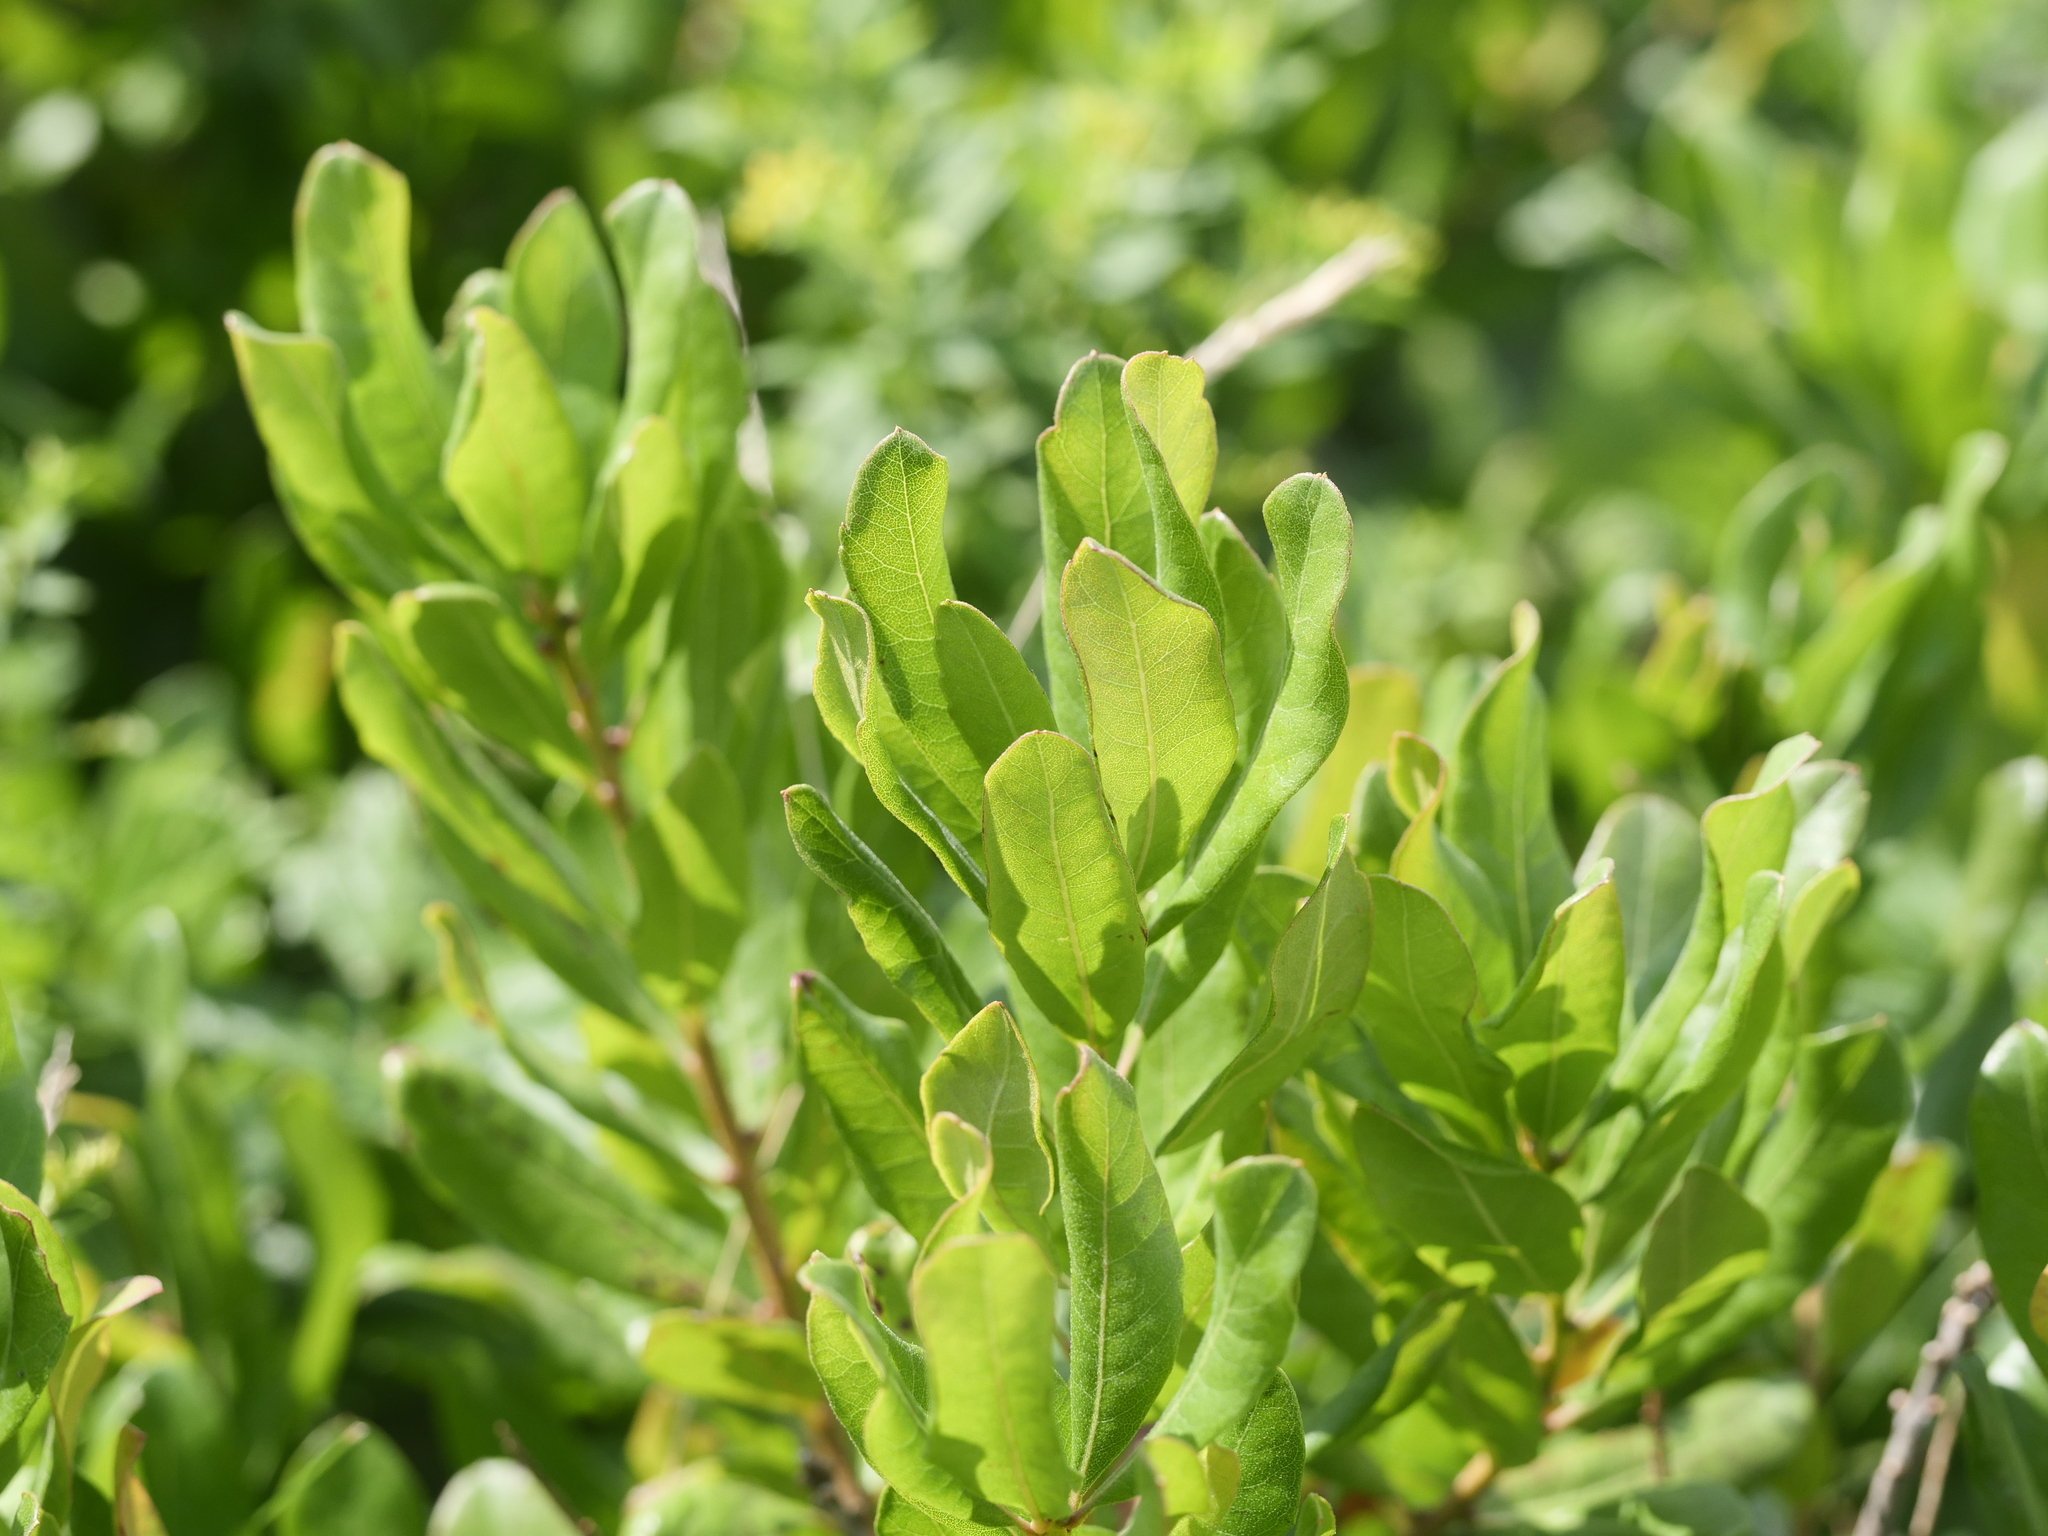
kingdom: Plantae
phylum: Tracheophyta
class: Magnoliopsida
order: Fagales
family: Myricaceae
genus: Morella
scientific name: Morella pensylvanica
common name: Northern bayberry
